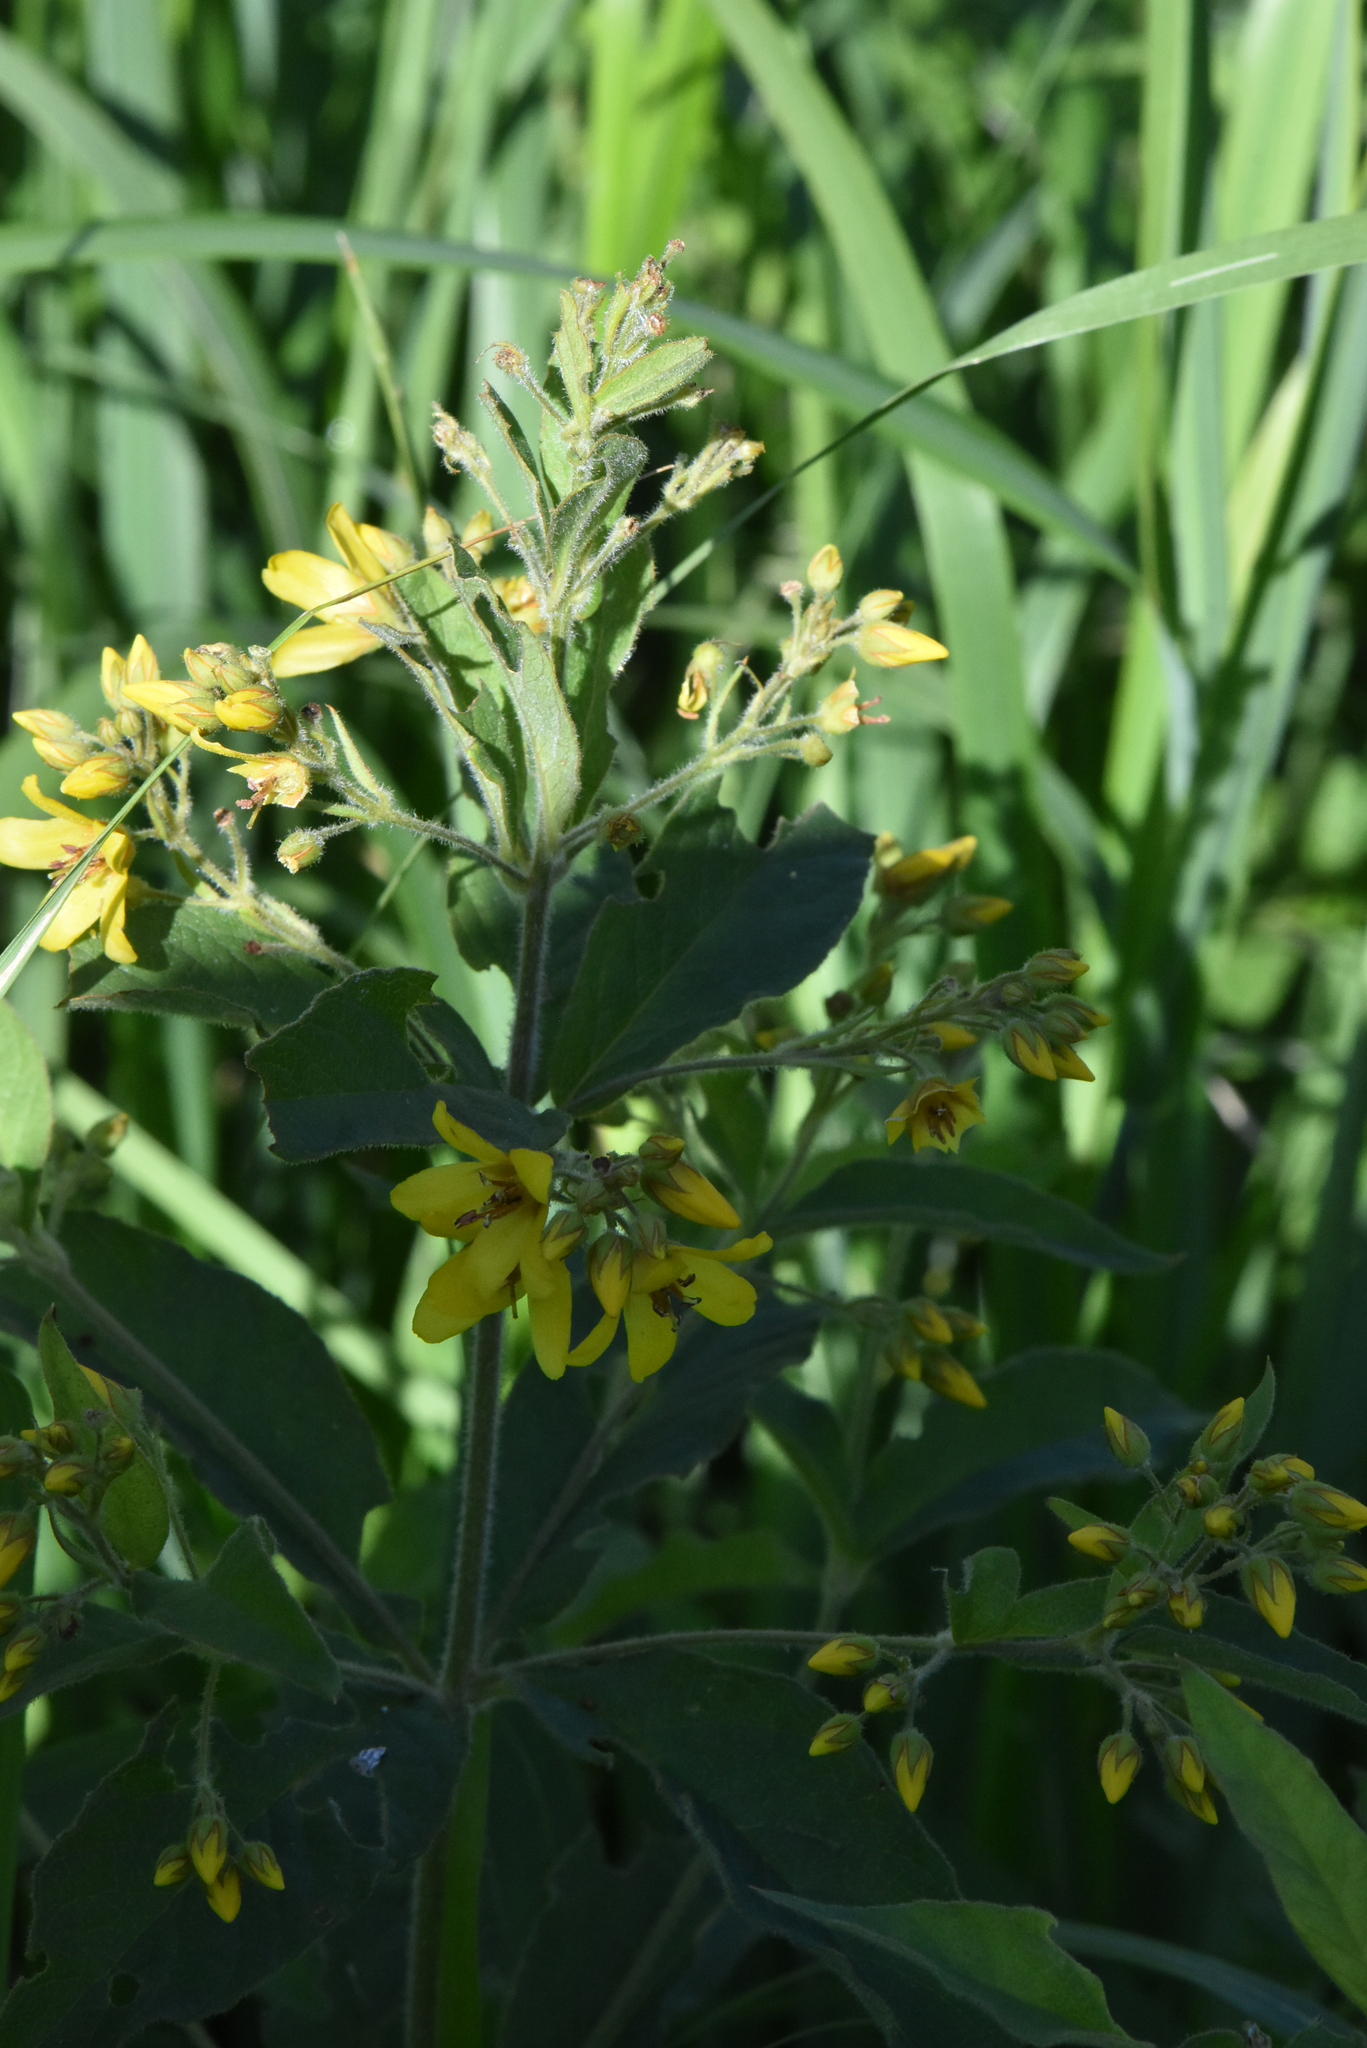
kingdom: Plantae
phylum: Tracheophyta
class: Magnoliopsida
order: Ericales
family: Primulaceae
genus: Lysimachia
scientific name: Lysimachia vulgaris
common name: Yellow loosestrife
